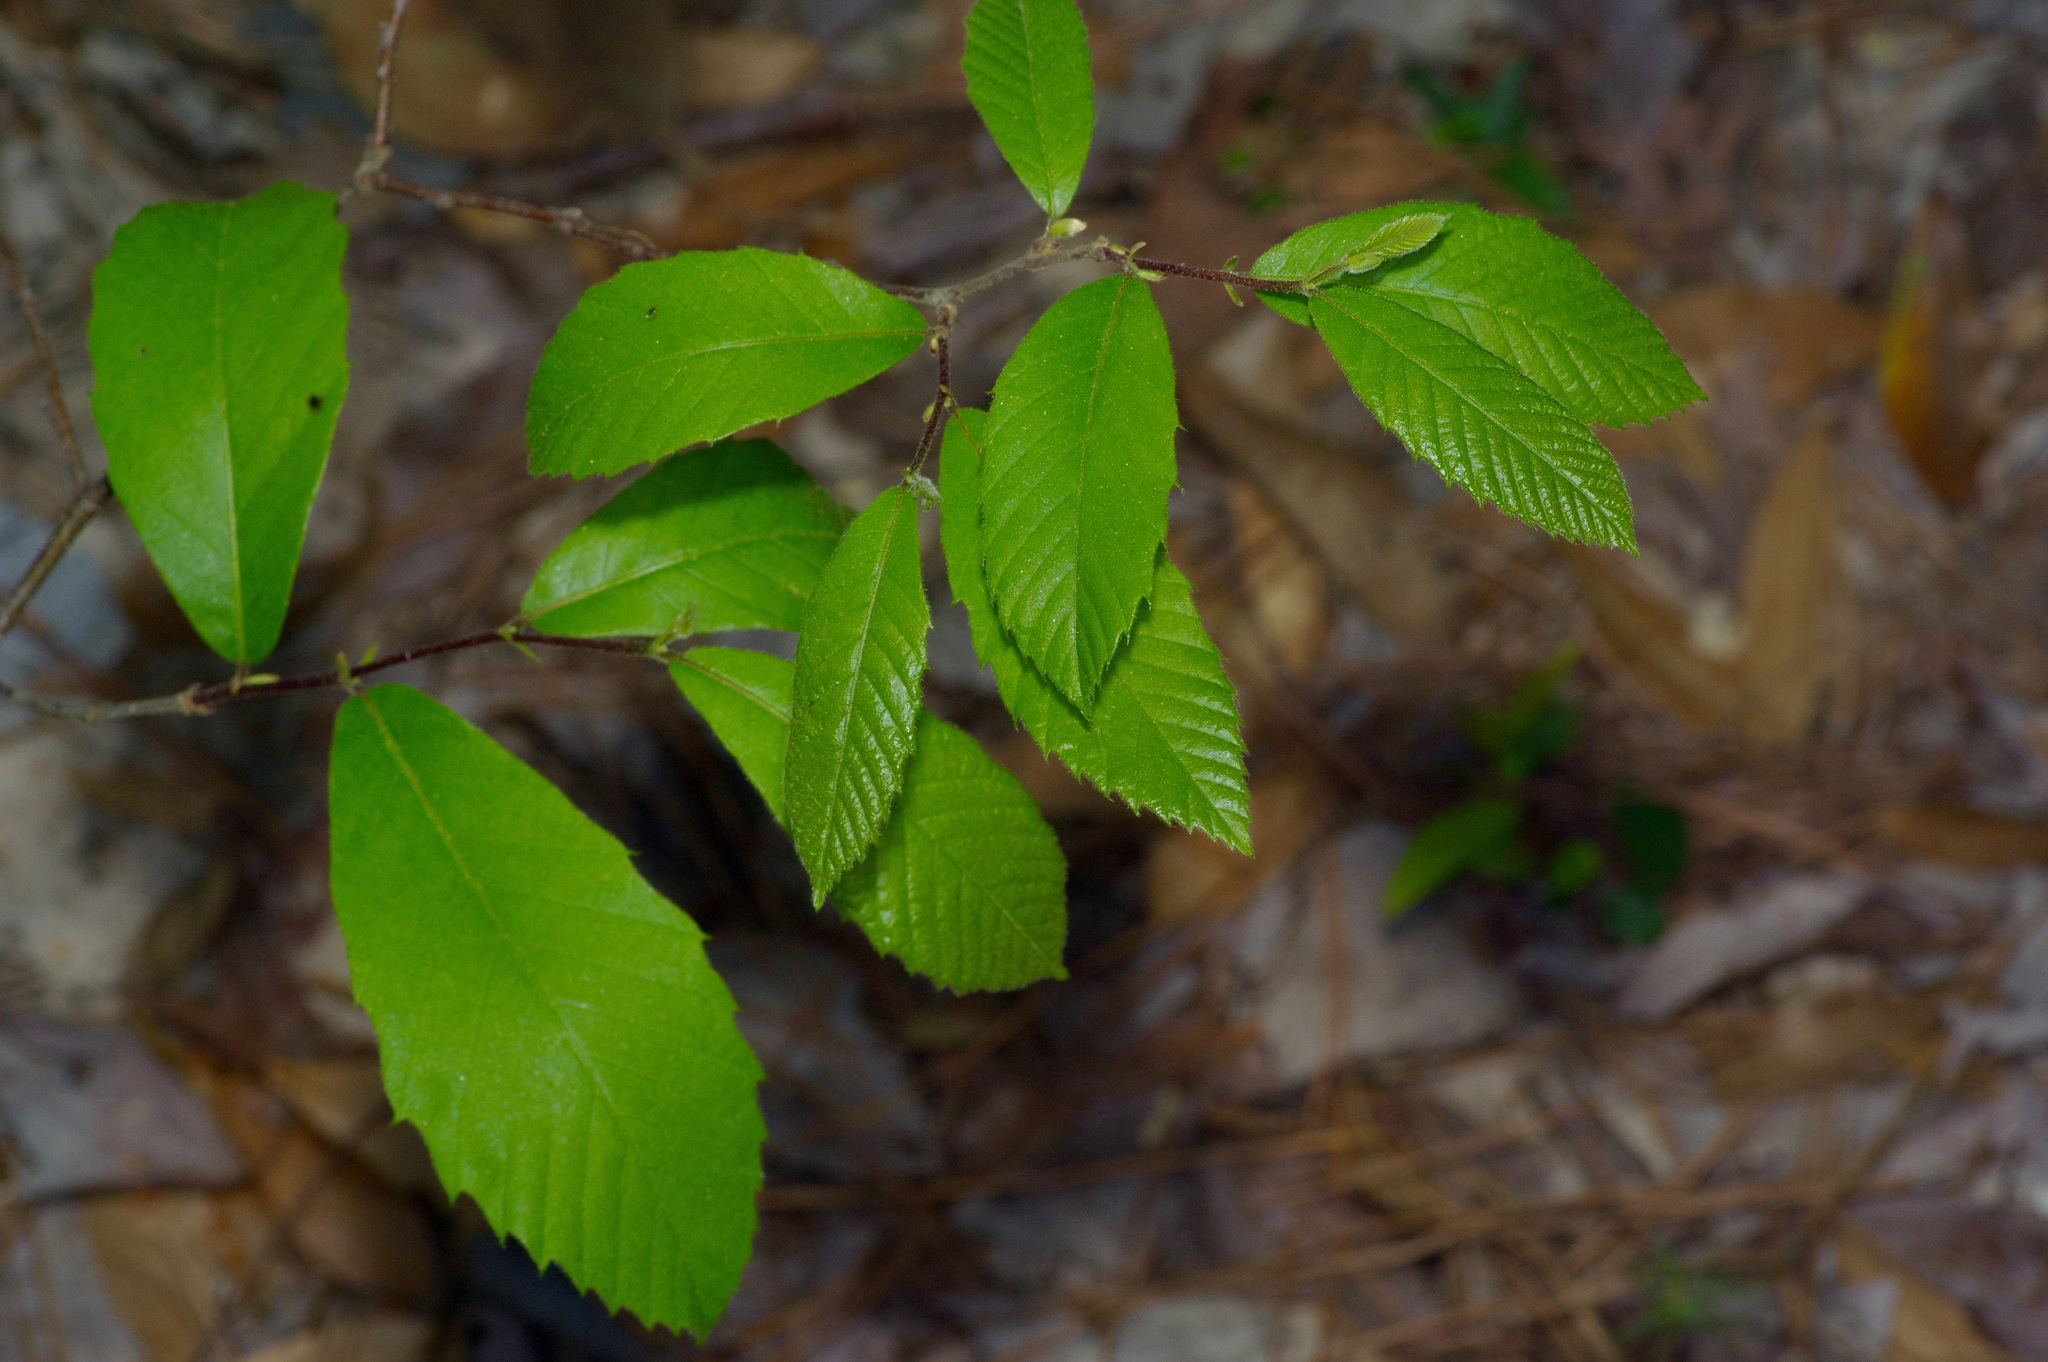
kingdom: Plantae
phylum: Tracheophyta
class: Magnoliopsida
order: Fagales
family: Fagaceae
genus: Castanea
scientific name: Castanea pumila
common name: Chinkapin
